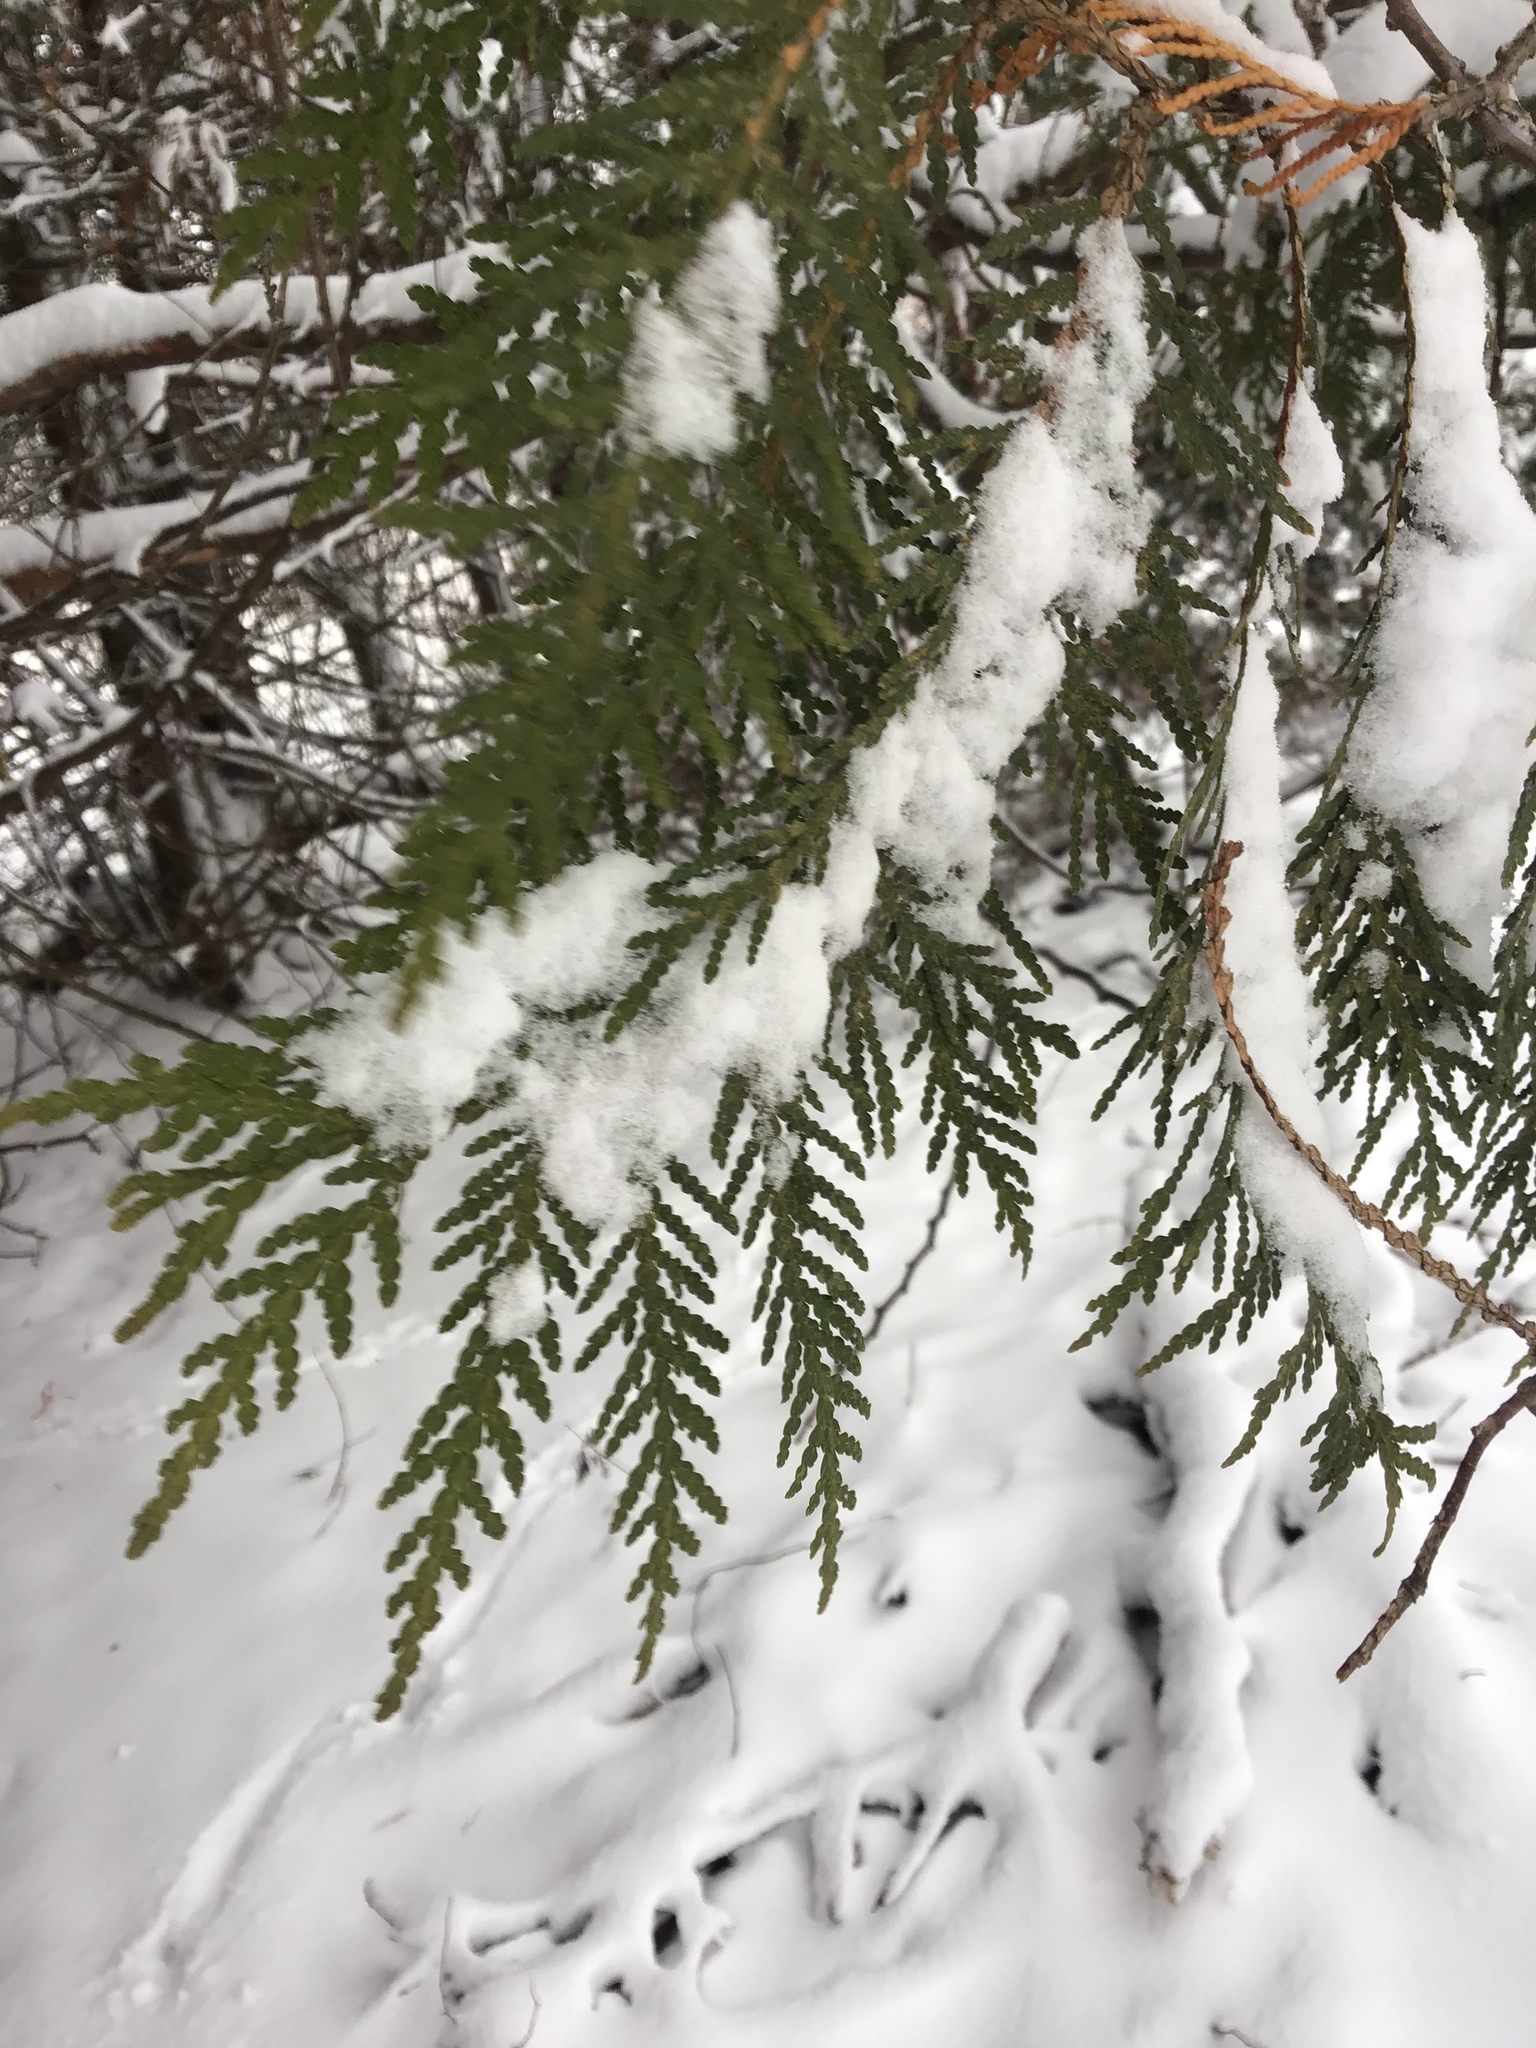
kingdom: Plantae
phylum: Tracheophyta
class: Pinopsida
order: Pinales
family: Cupressaceae
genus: Thuja
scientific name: Thuja occidentalis
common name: Northern white-cedar
